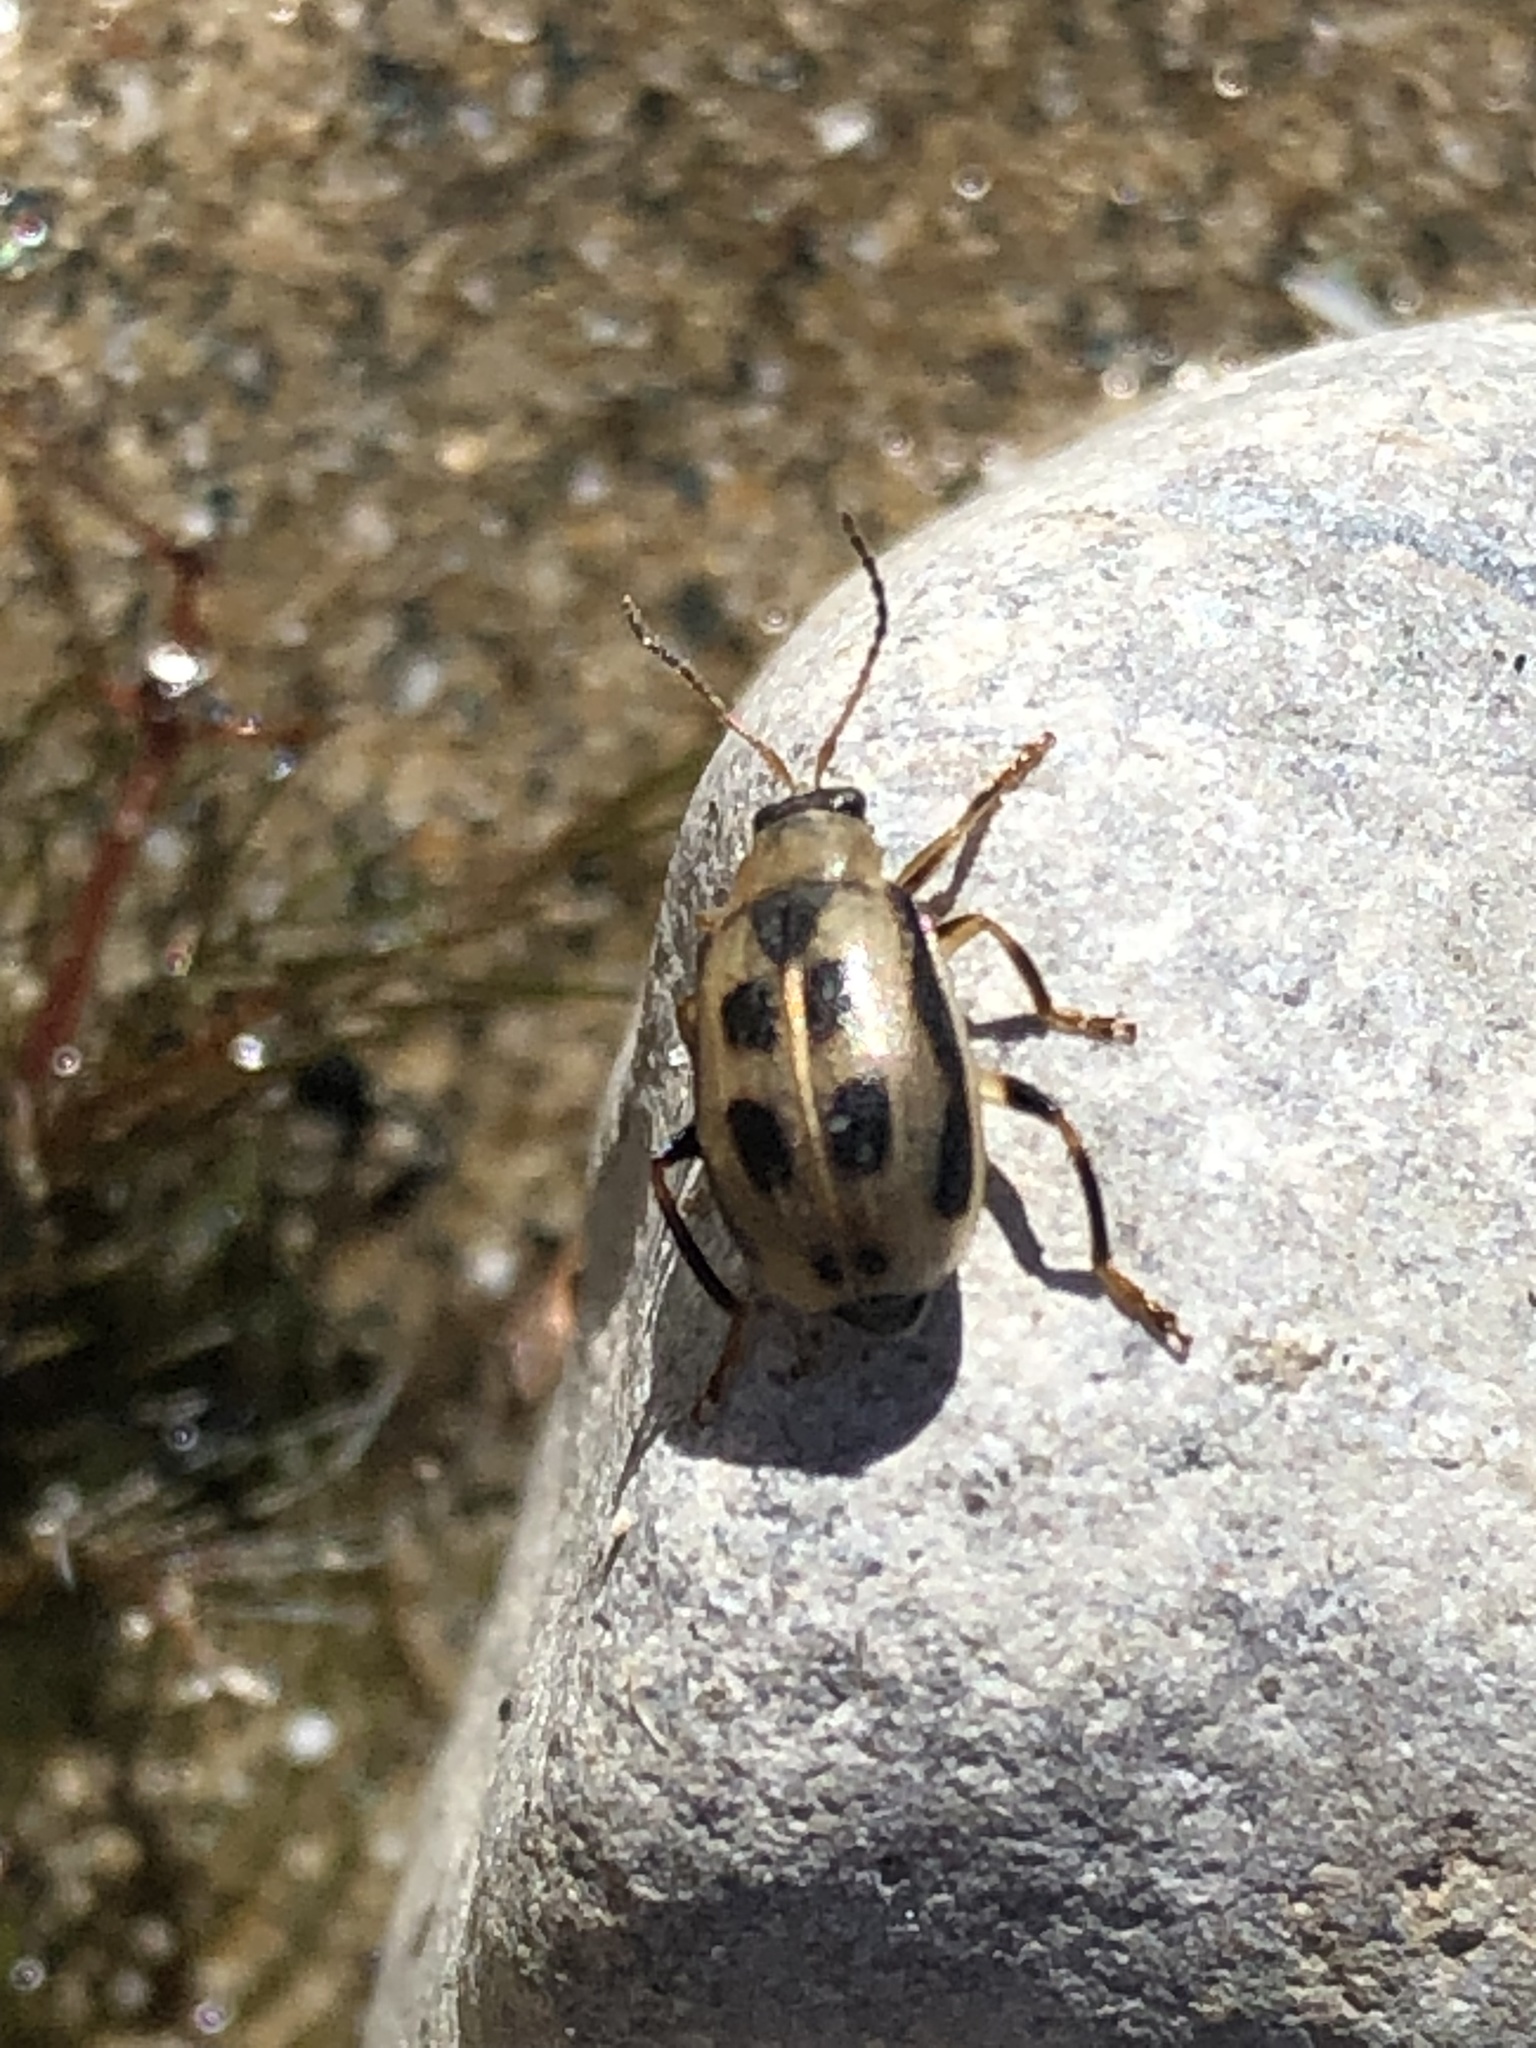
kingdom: Animalia
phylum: Arthropoda
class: Insecta
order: Coleoptera
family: Chrysomelidae
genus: Cerotoma
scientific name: Cerotoma trifurcata
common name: Bean leaf beetle
